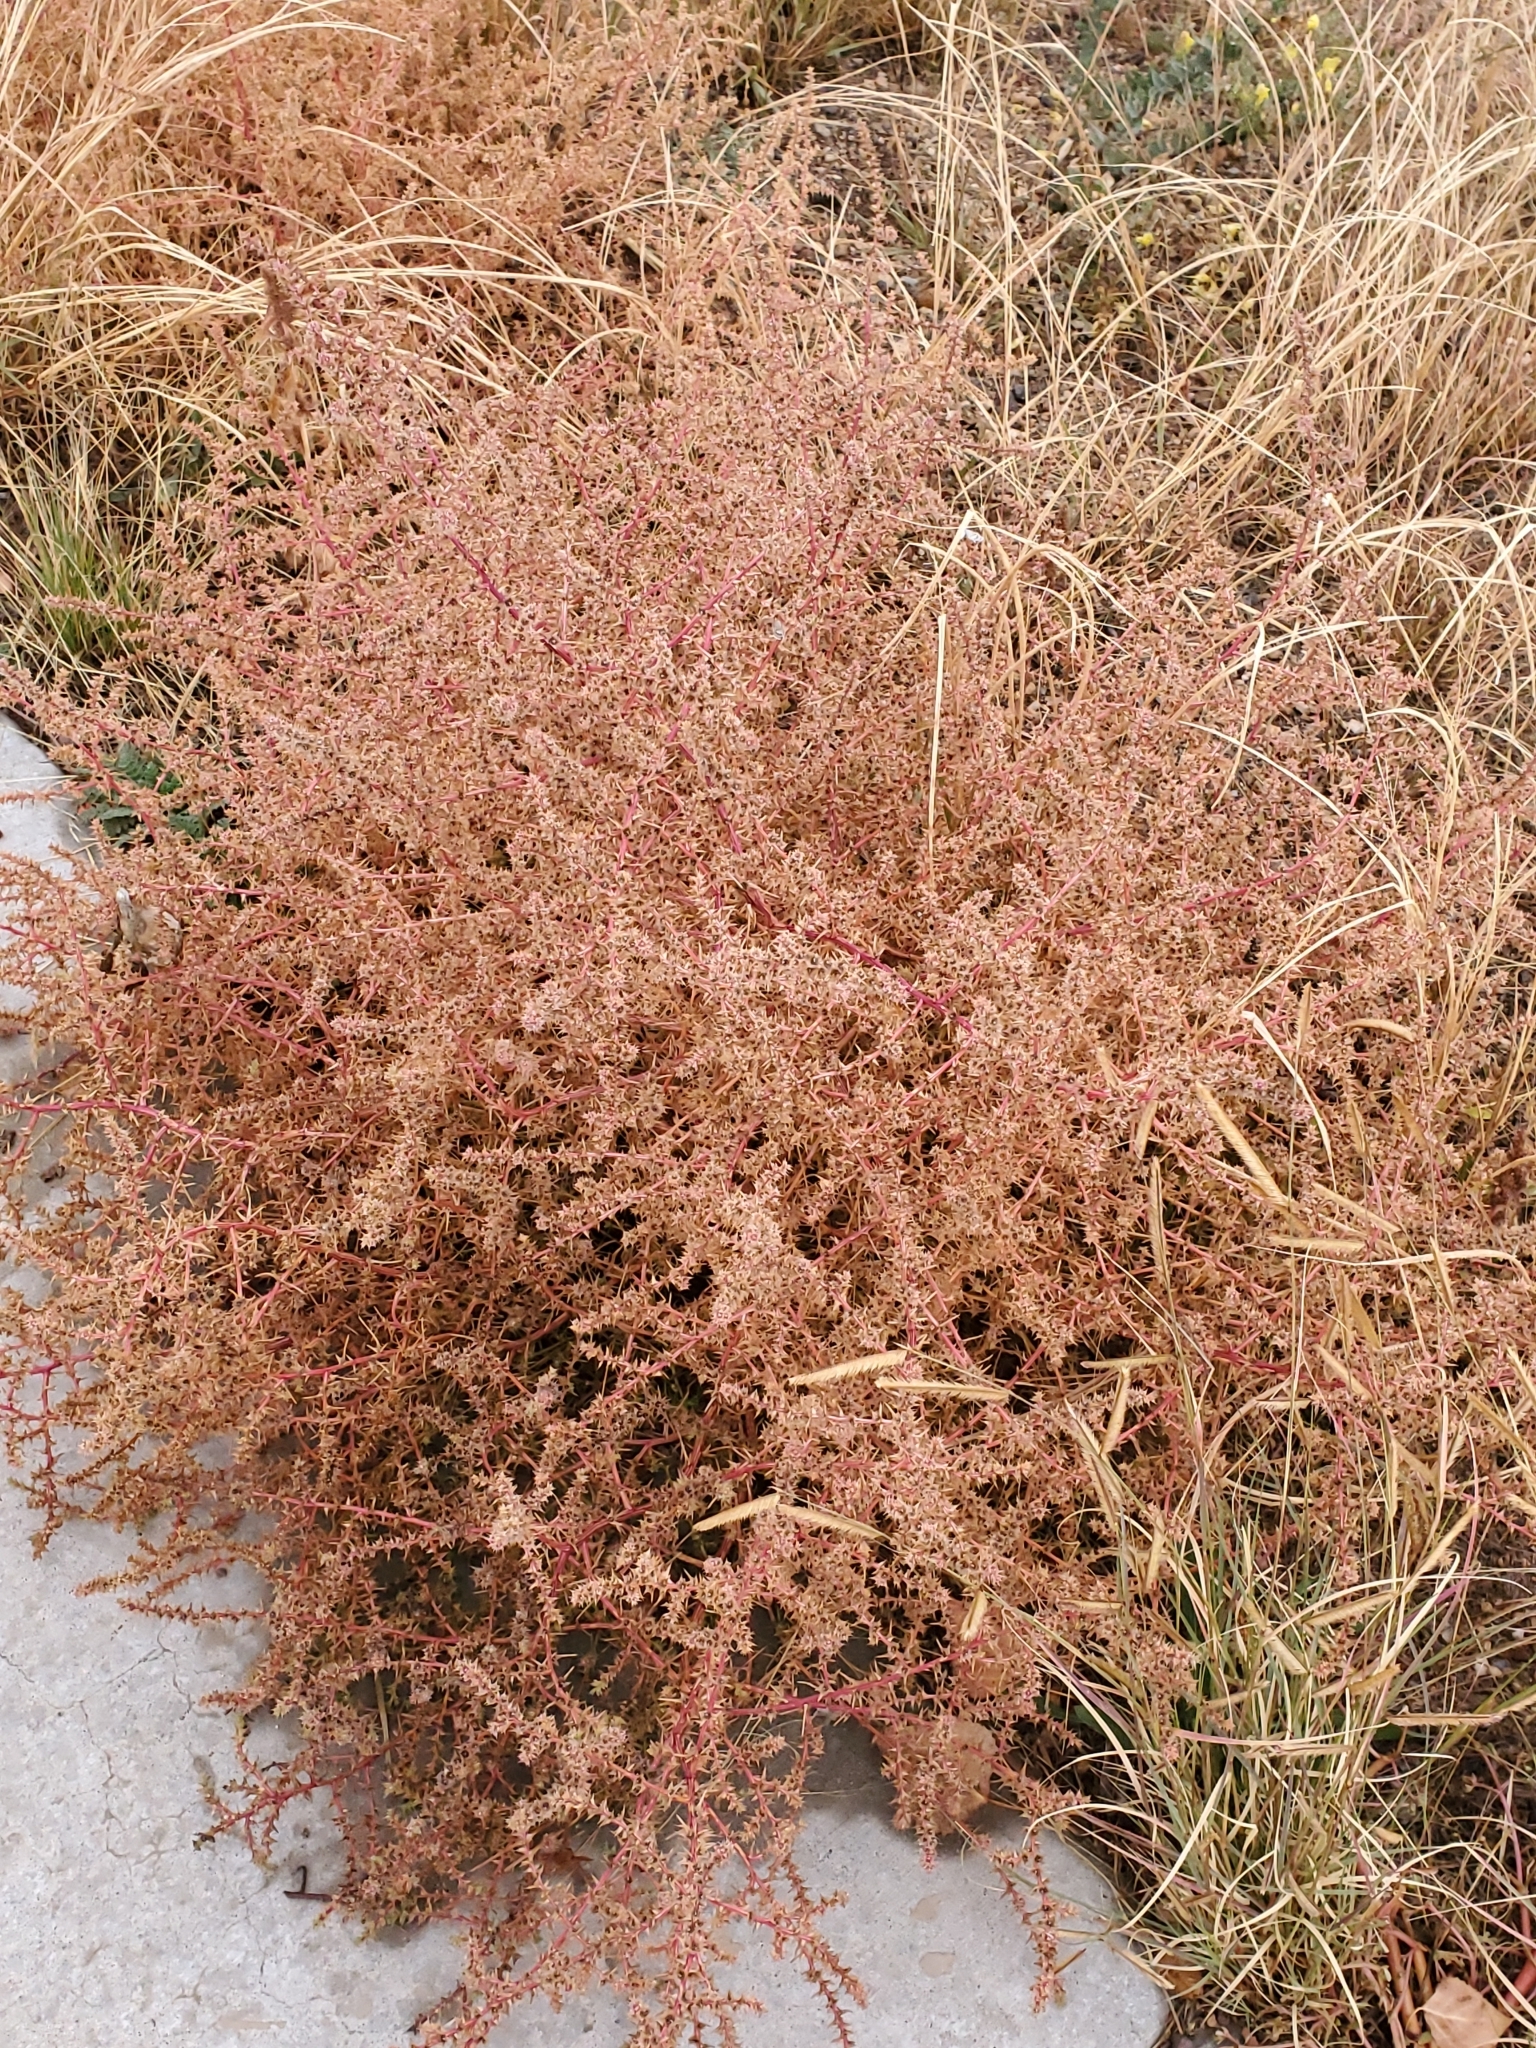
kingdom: Plantae
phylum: Tracheophyta
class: Magnoliopsida
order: Caryophyllales
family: Amaranthaceae
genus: Salsola
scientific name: Salsola tragus
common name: Prickly russian thistle
